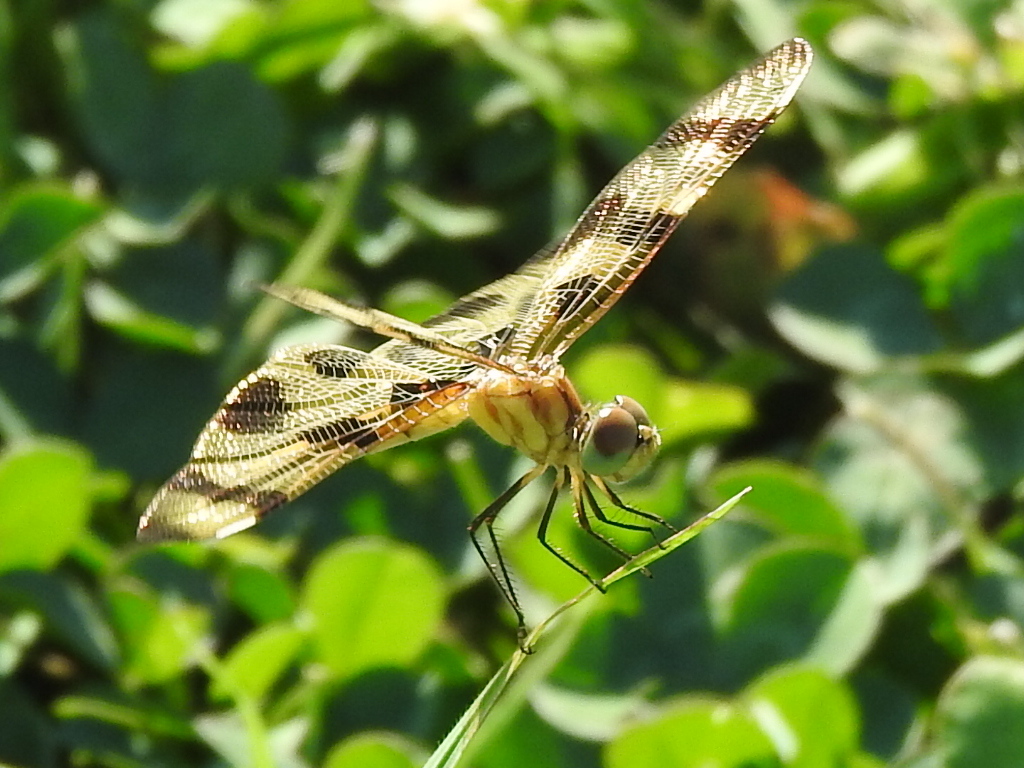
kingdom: Animalia
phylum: Arthropoda
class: Insecta
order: Odonata
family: Libellulidae
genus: Celithemis
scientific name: Celithemis eponina
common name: Halloween pennant
